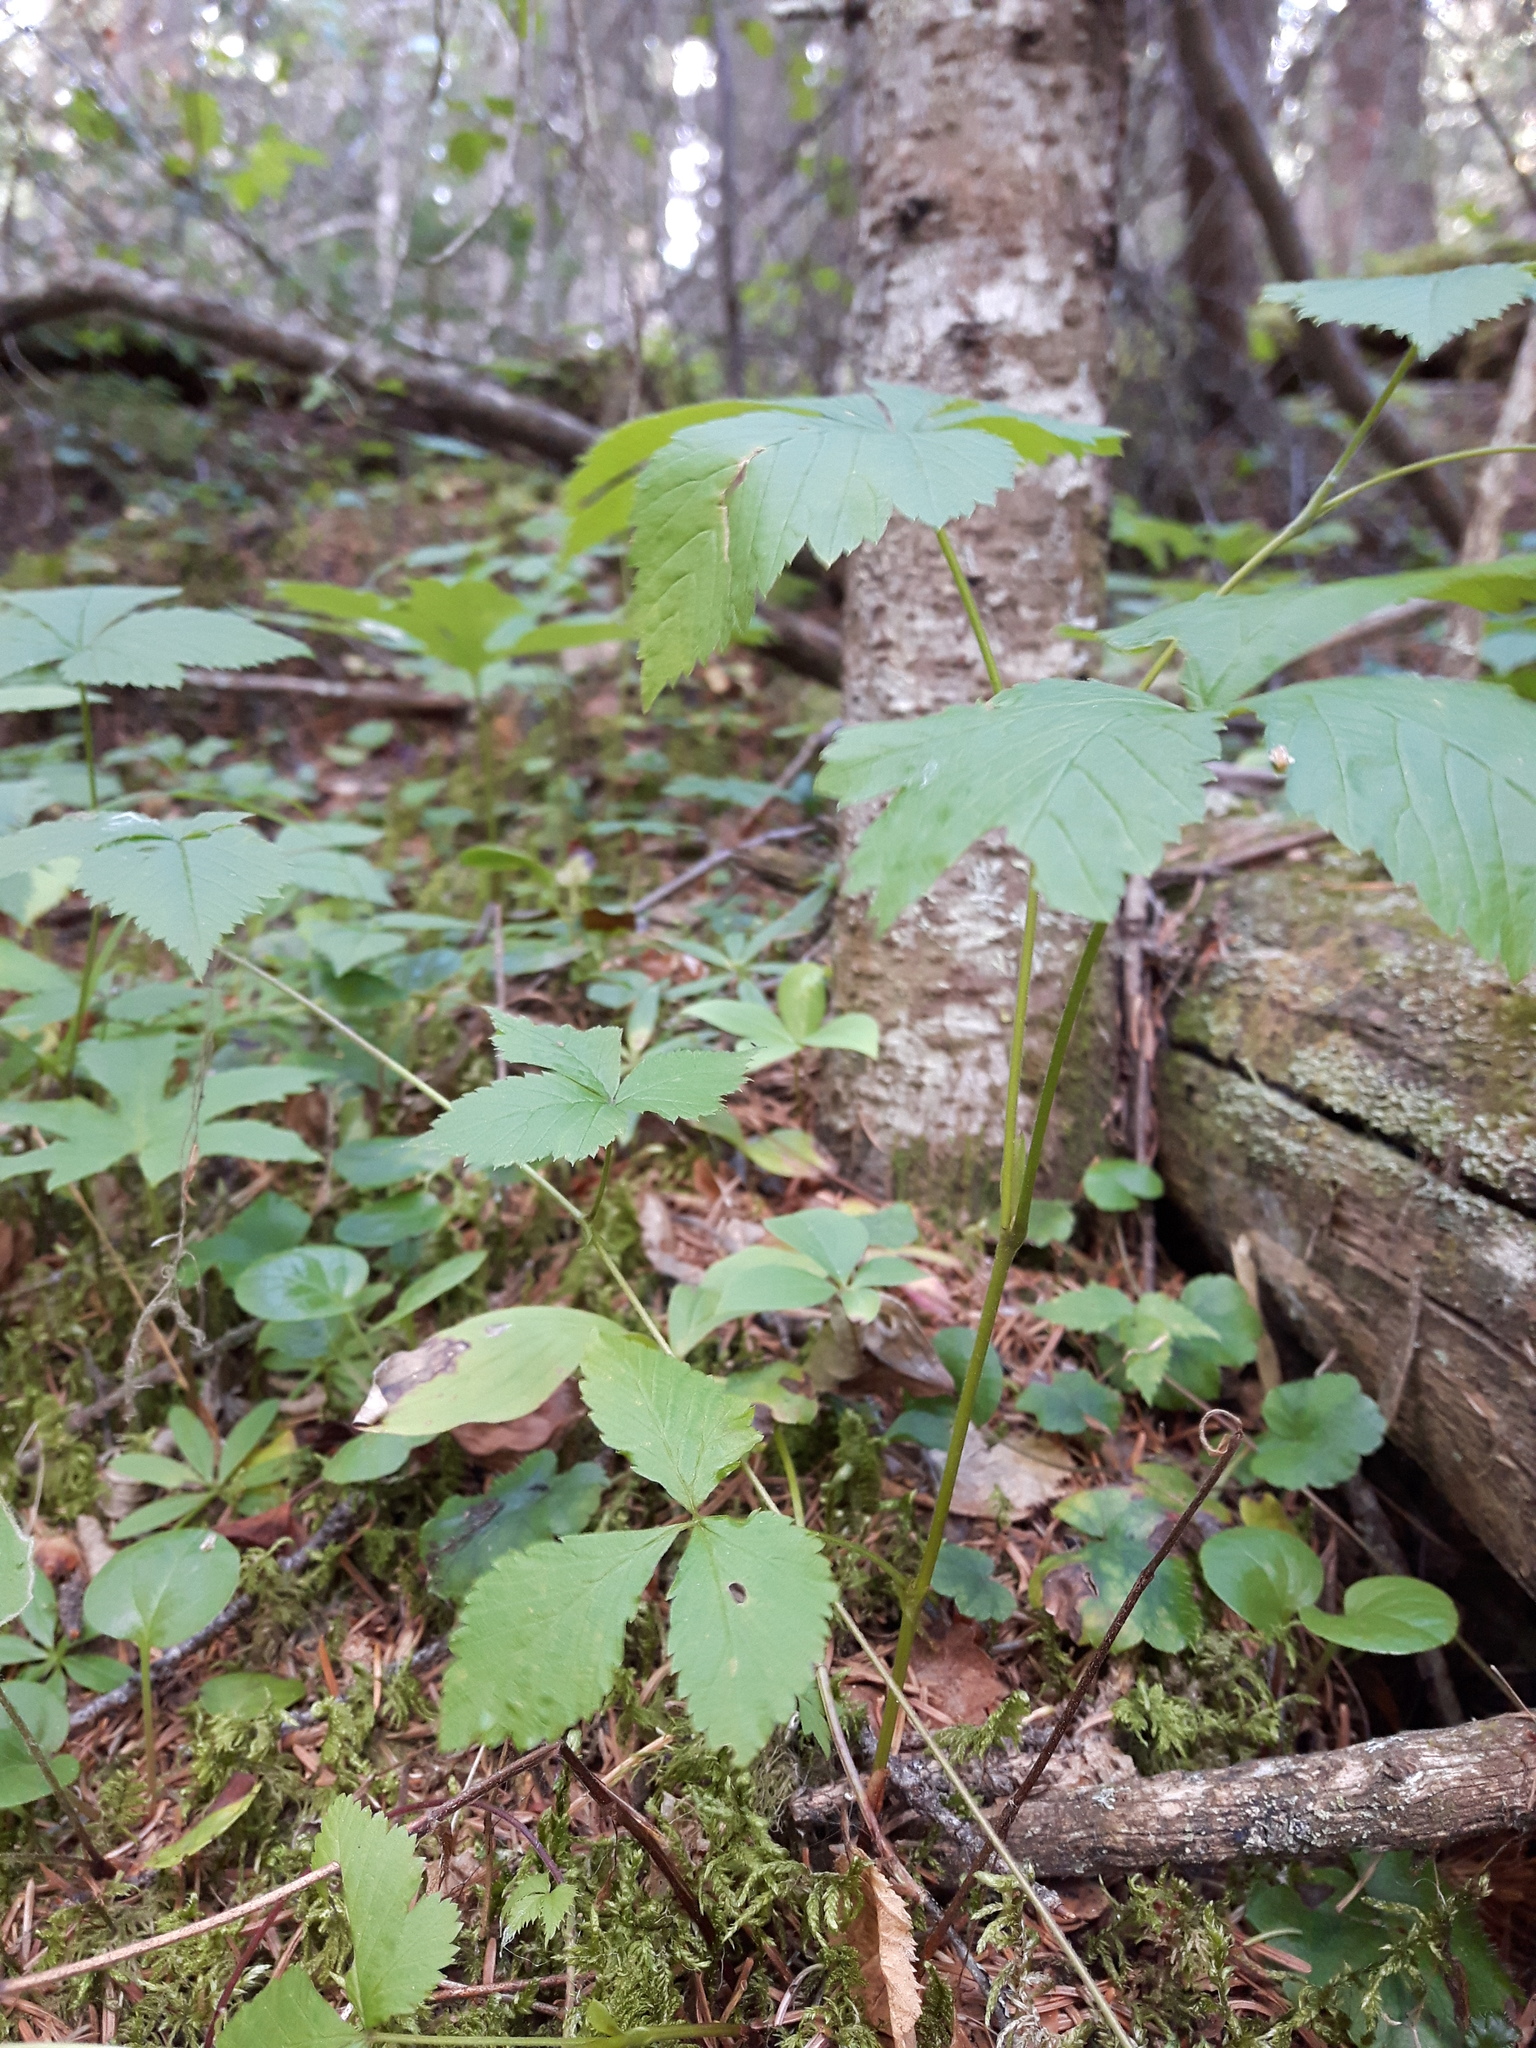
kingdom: Plantae
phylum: Tracheophyta
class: Magnoliopsida
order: Rosales
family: Rosaceae
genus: Rubus
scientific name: Rubus pubescens
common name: Dwarf raspberry
